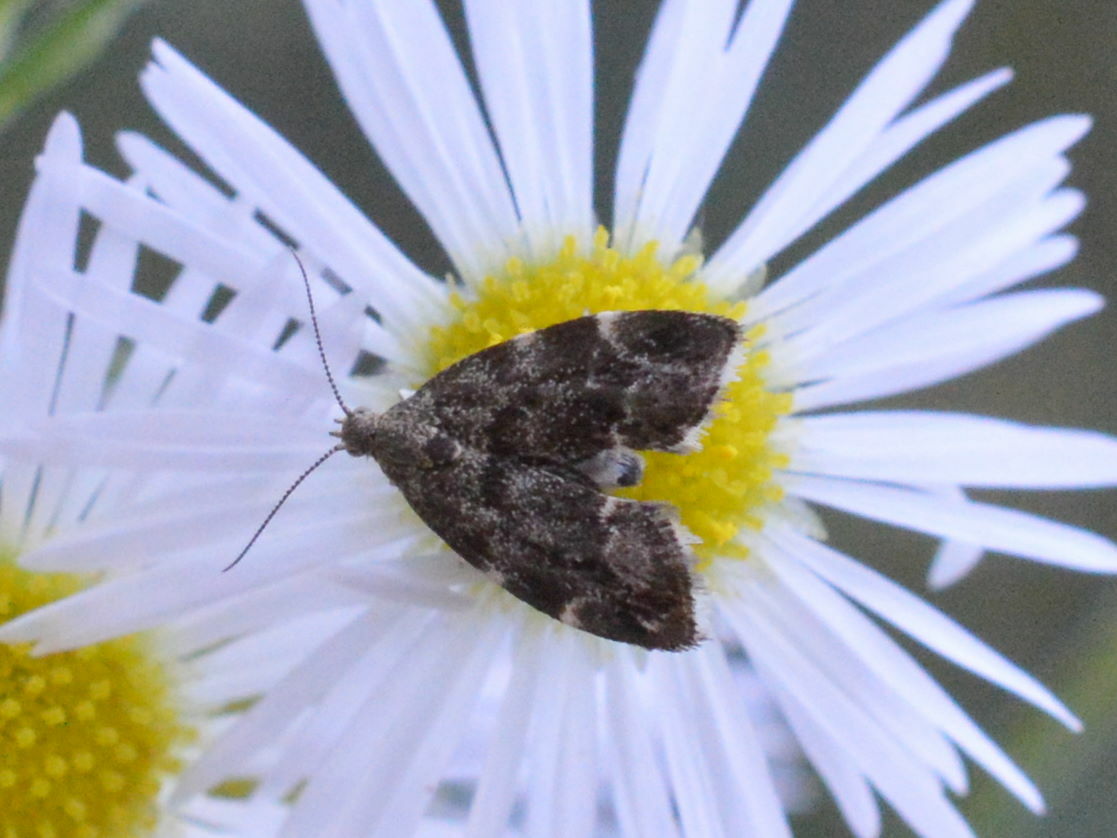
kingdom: Animalia
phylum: Arthropoda
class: Insecta
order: Lepidoptera
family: Choreutidae
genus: Anthophila
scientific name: Anthophila fabriciana
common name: Nettle-tap
